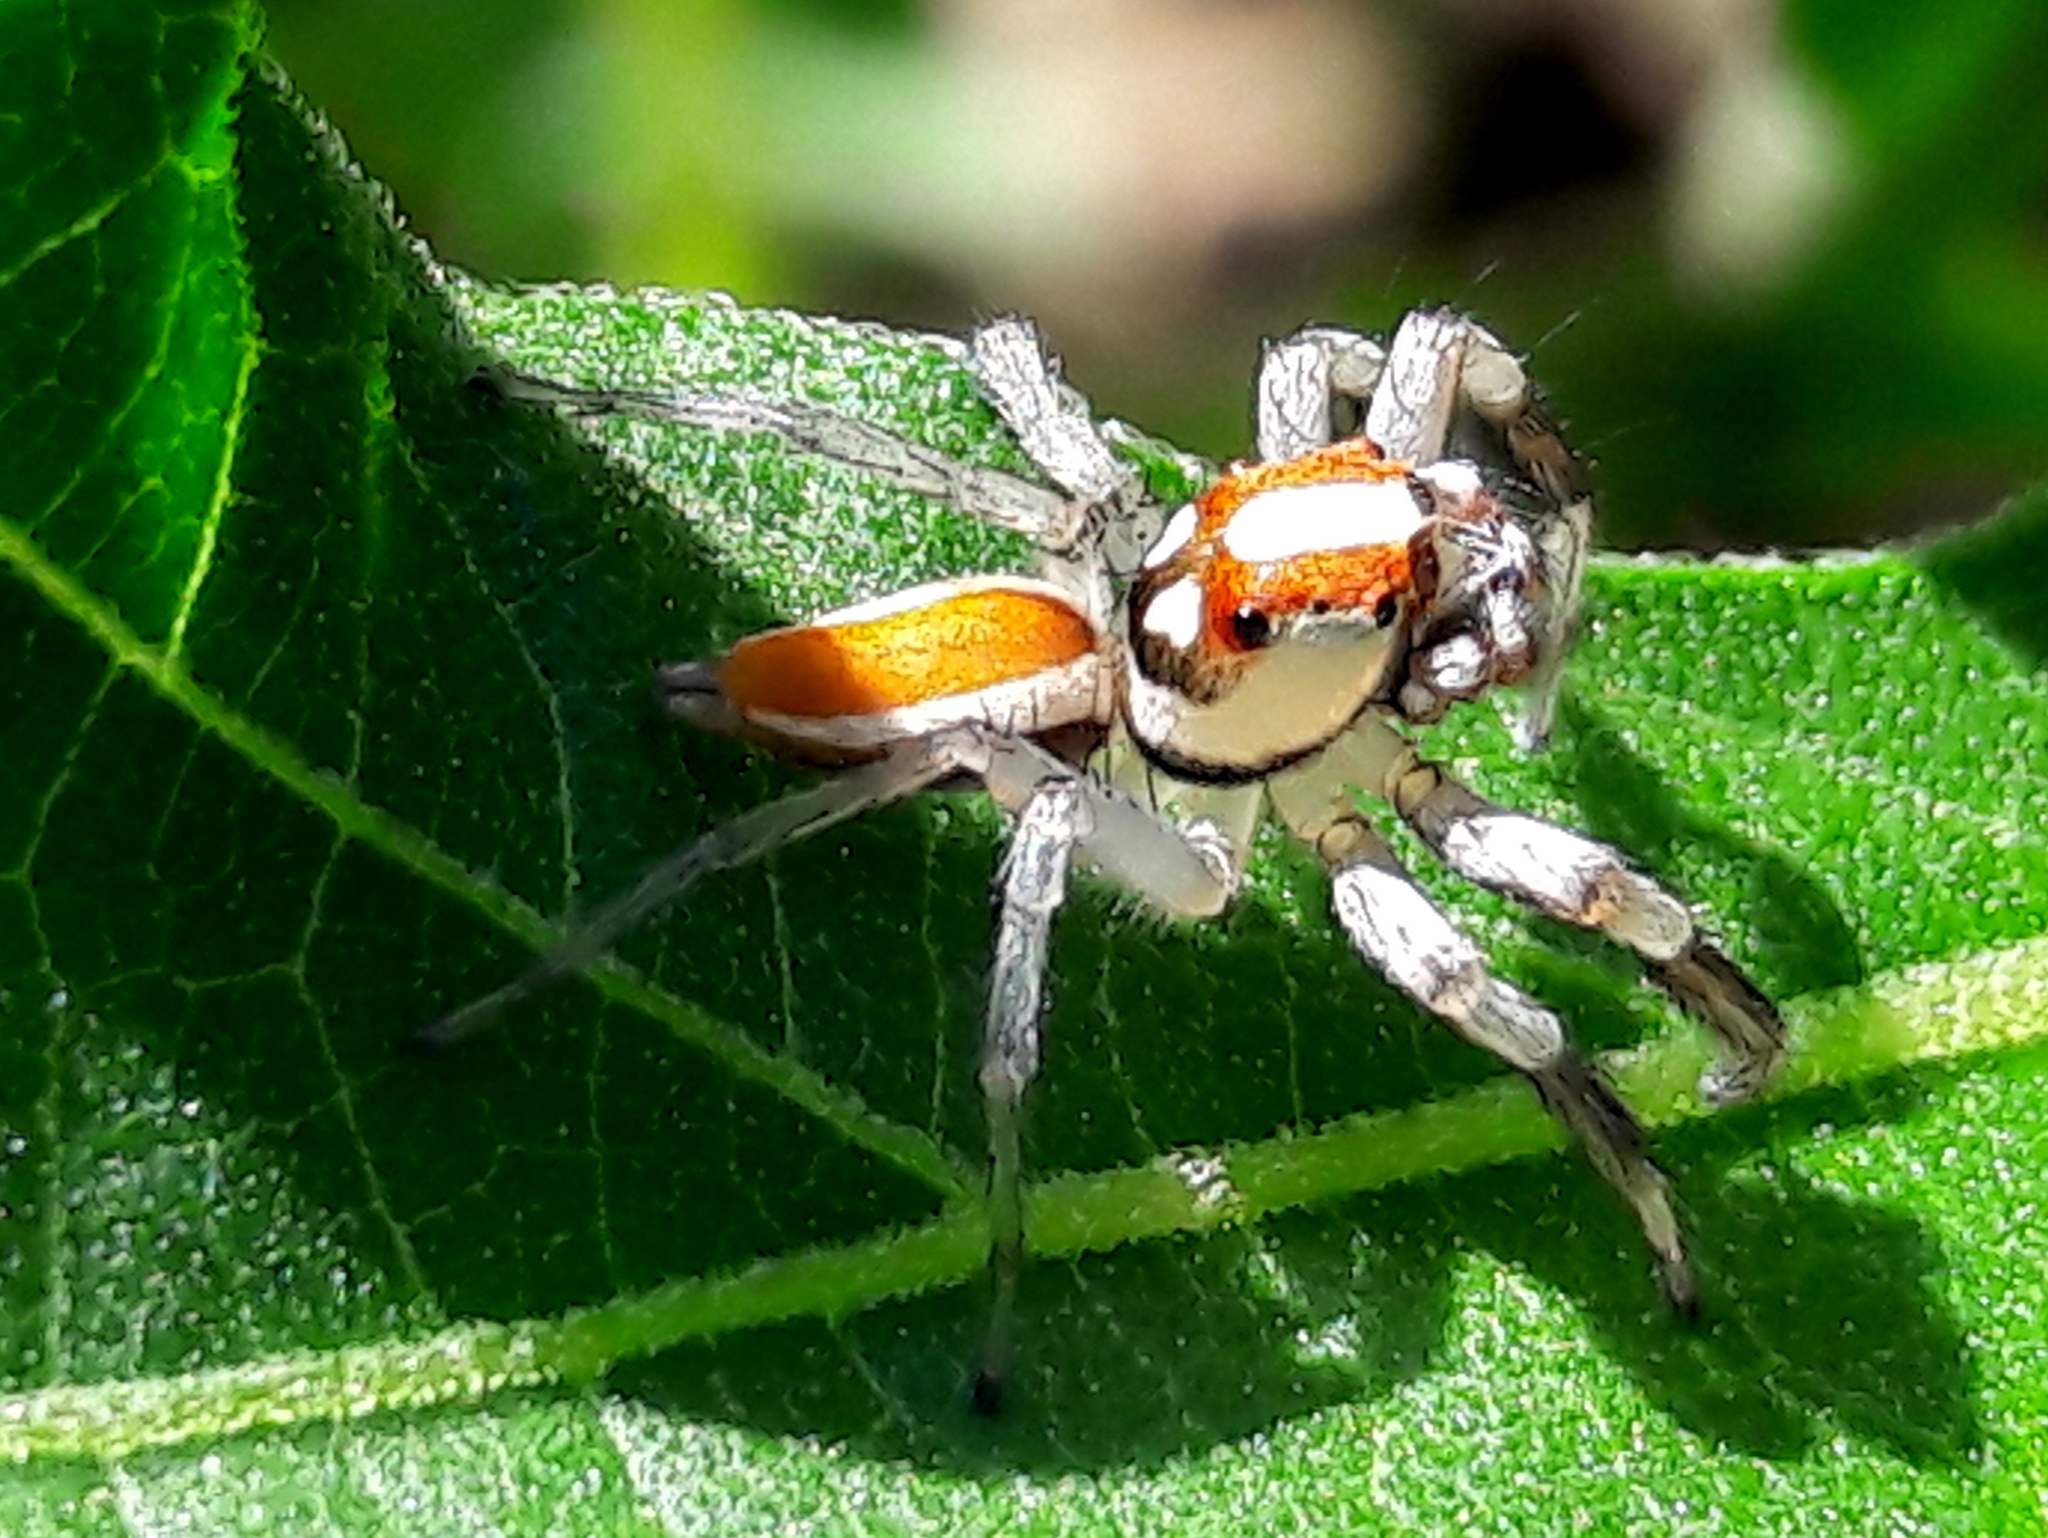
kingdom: Animalia
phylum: Arthropoda
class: Arachnida
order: Araneae
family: Salticidae
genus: Chira
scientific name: Chira guianensis
